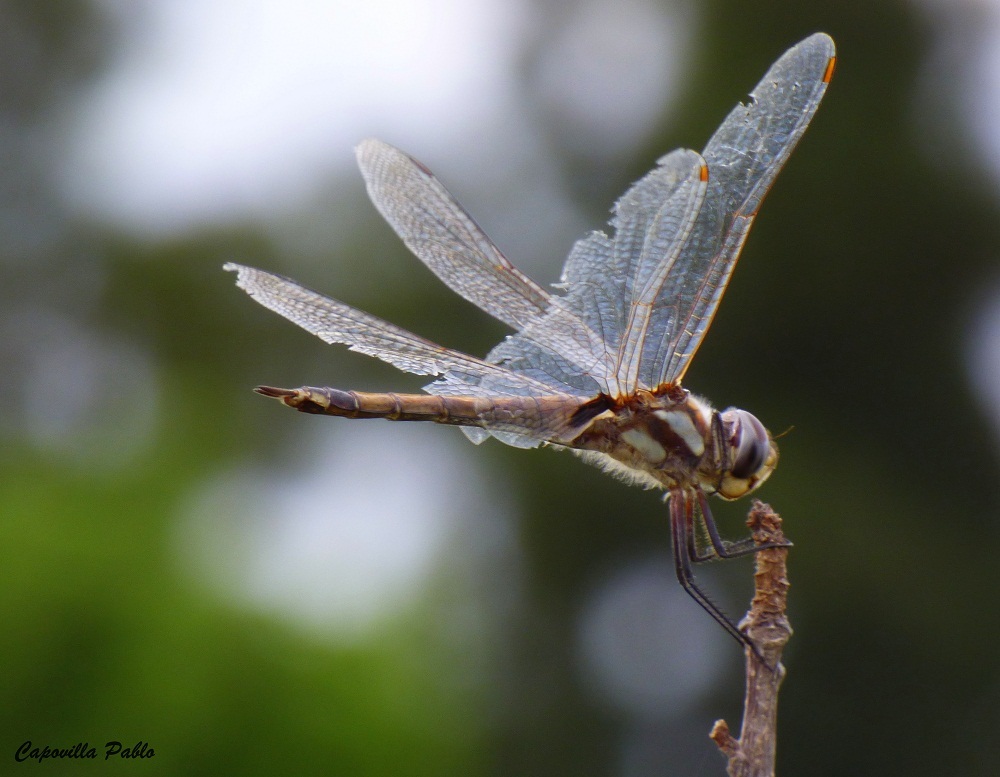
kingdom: Animalia
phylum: Arthropoda
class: Insecta
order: Odonata
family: Libellulidae
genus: Tramea
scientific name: Tramea cophysa
